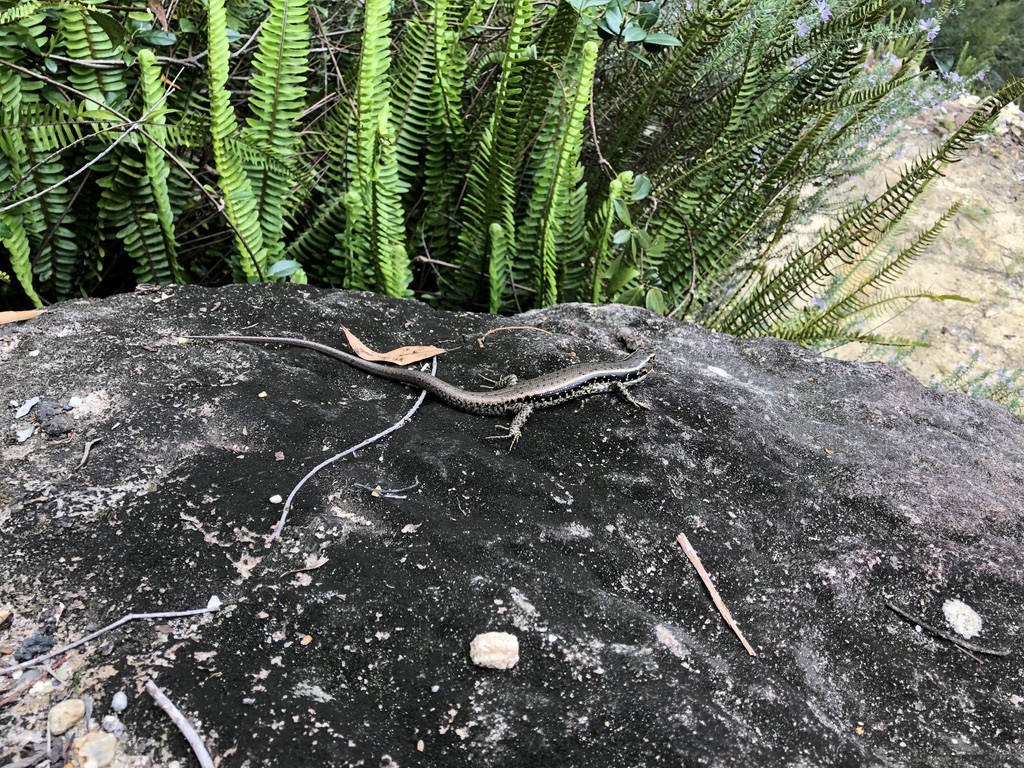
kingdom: Animalia
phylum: Chordata
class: Squamata
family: Scincidae
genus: Eulamprus
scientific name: Eulamprus quoyii
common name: Eastern water skink
